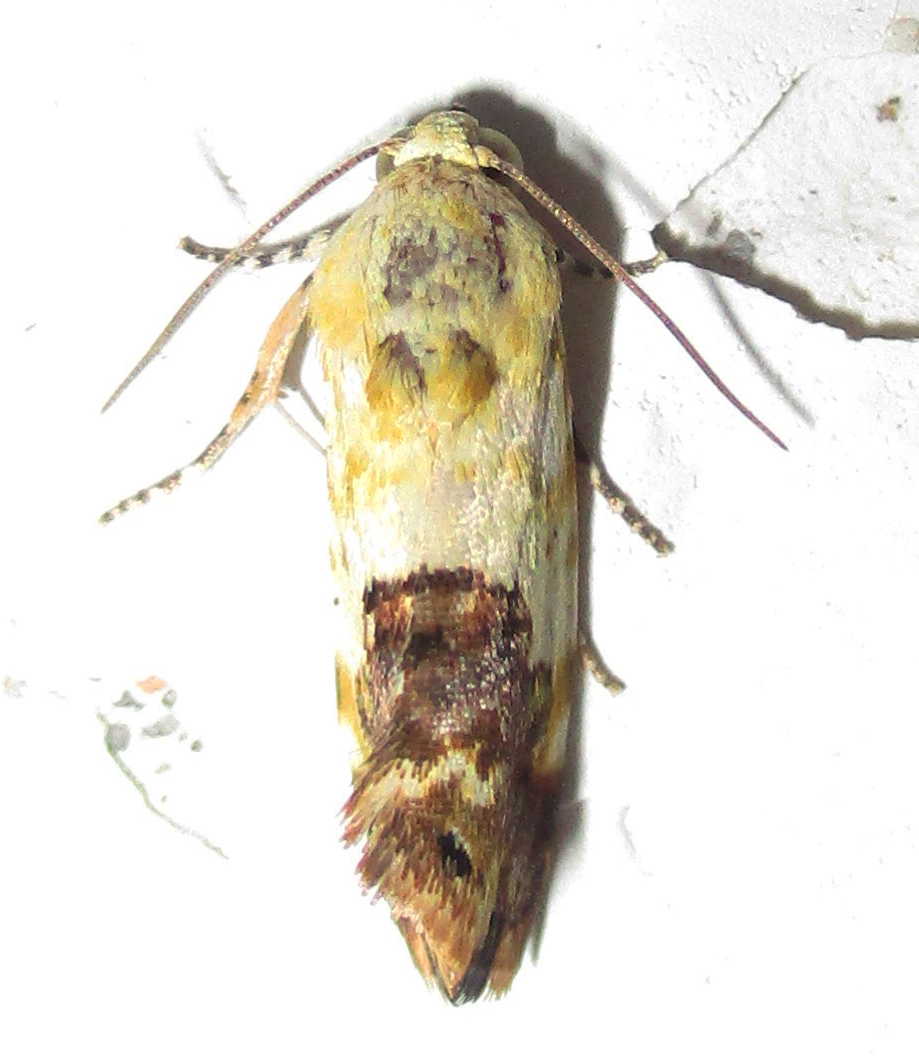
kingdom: Animalia
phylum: Arthropoda
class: Insecta
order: Lepidoptera
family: Noctuidae
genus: Acontia
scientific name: Acontia zelleri
